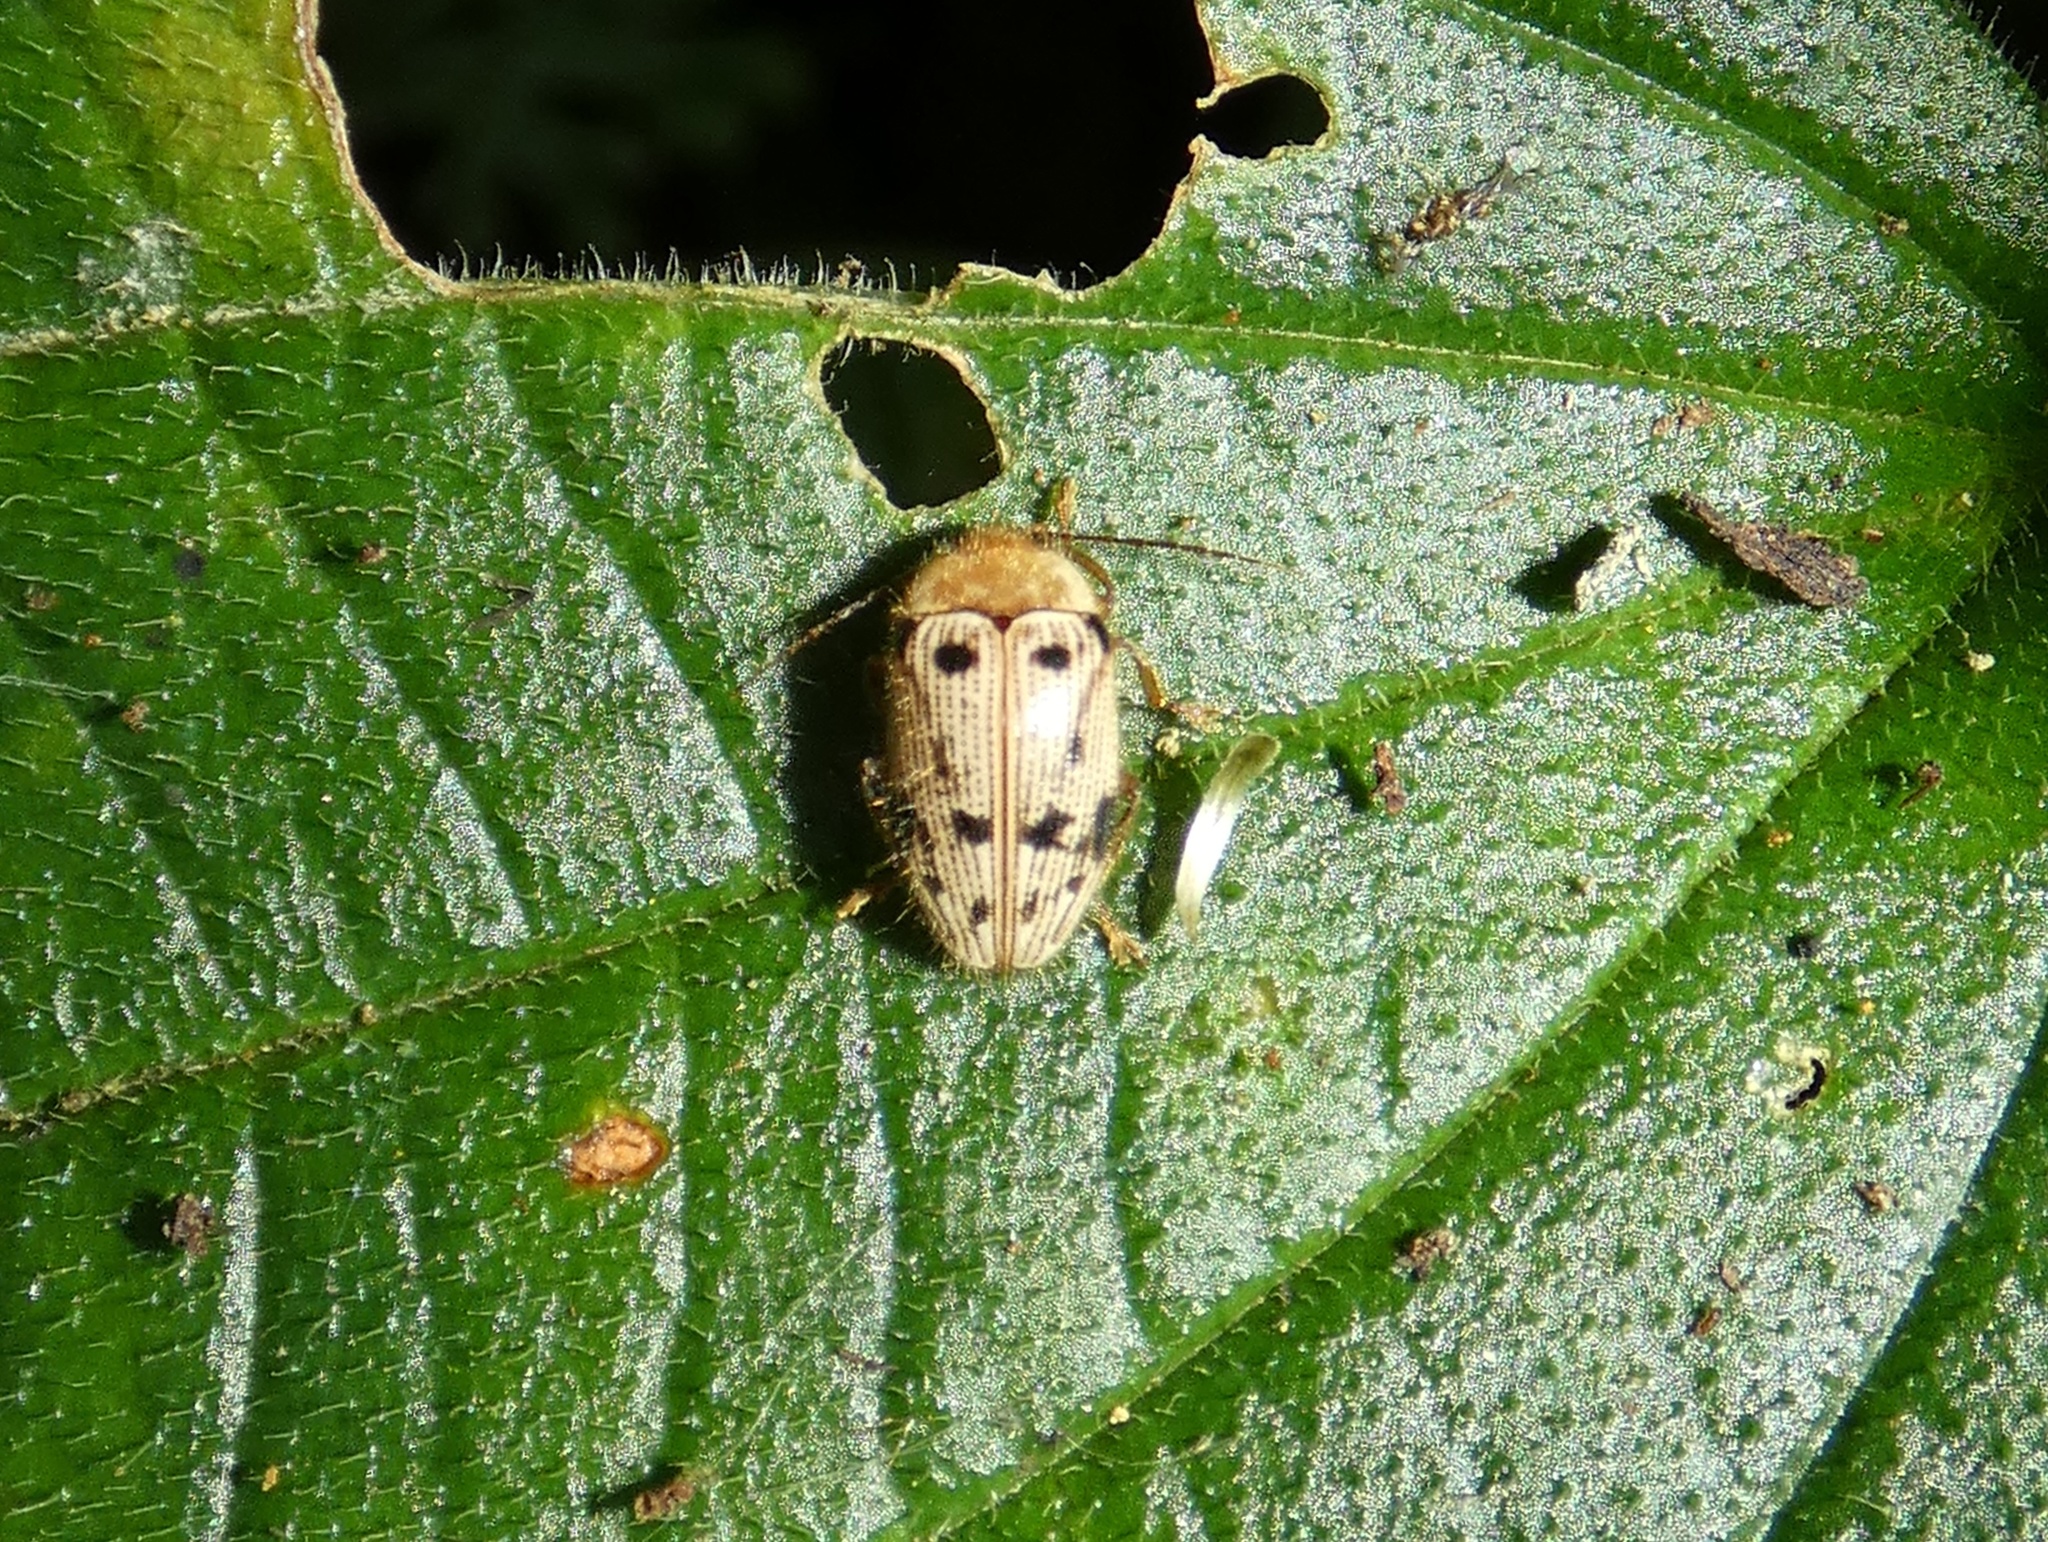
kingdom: Animalia
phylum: Arthropoda
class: Insecta
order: Coleoptera
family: Artematopodidae
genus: Artematopus
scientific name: Artematopus
